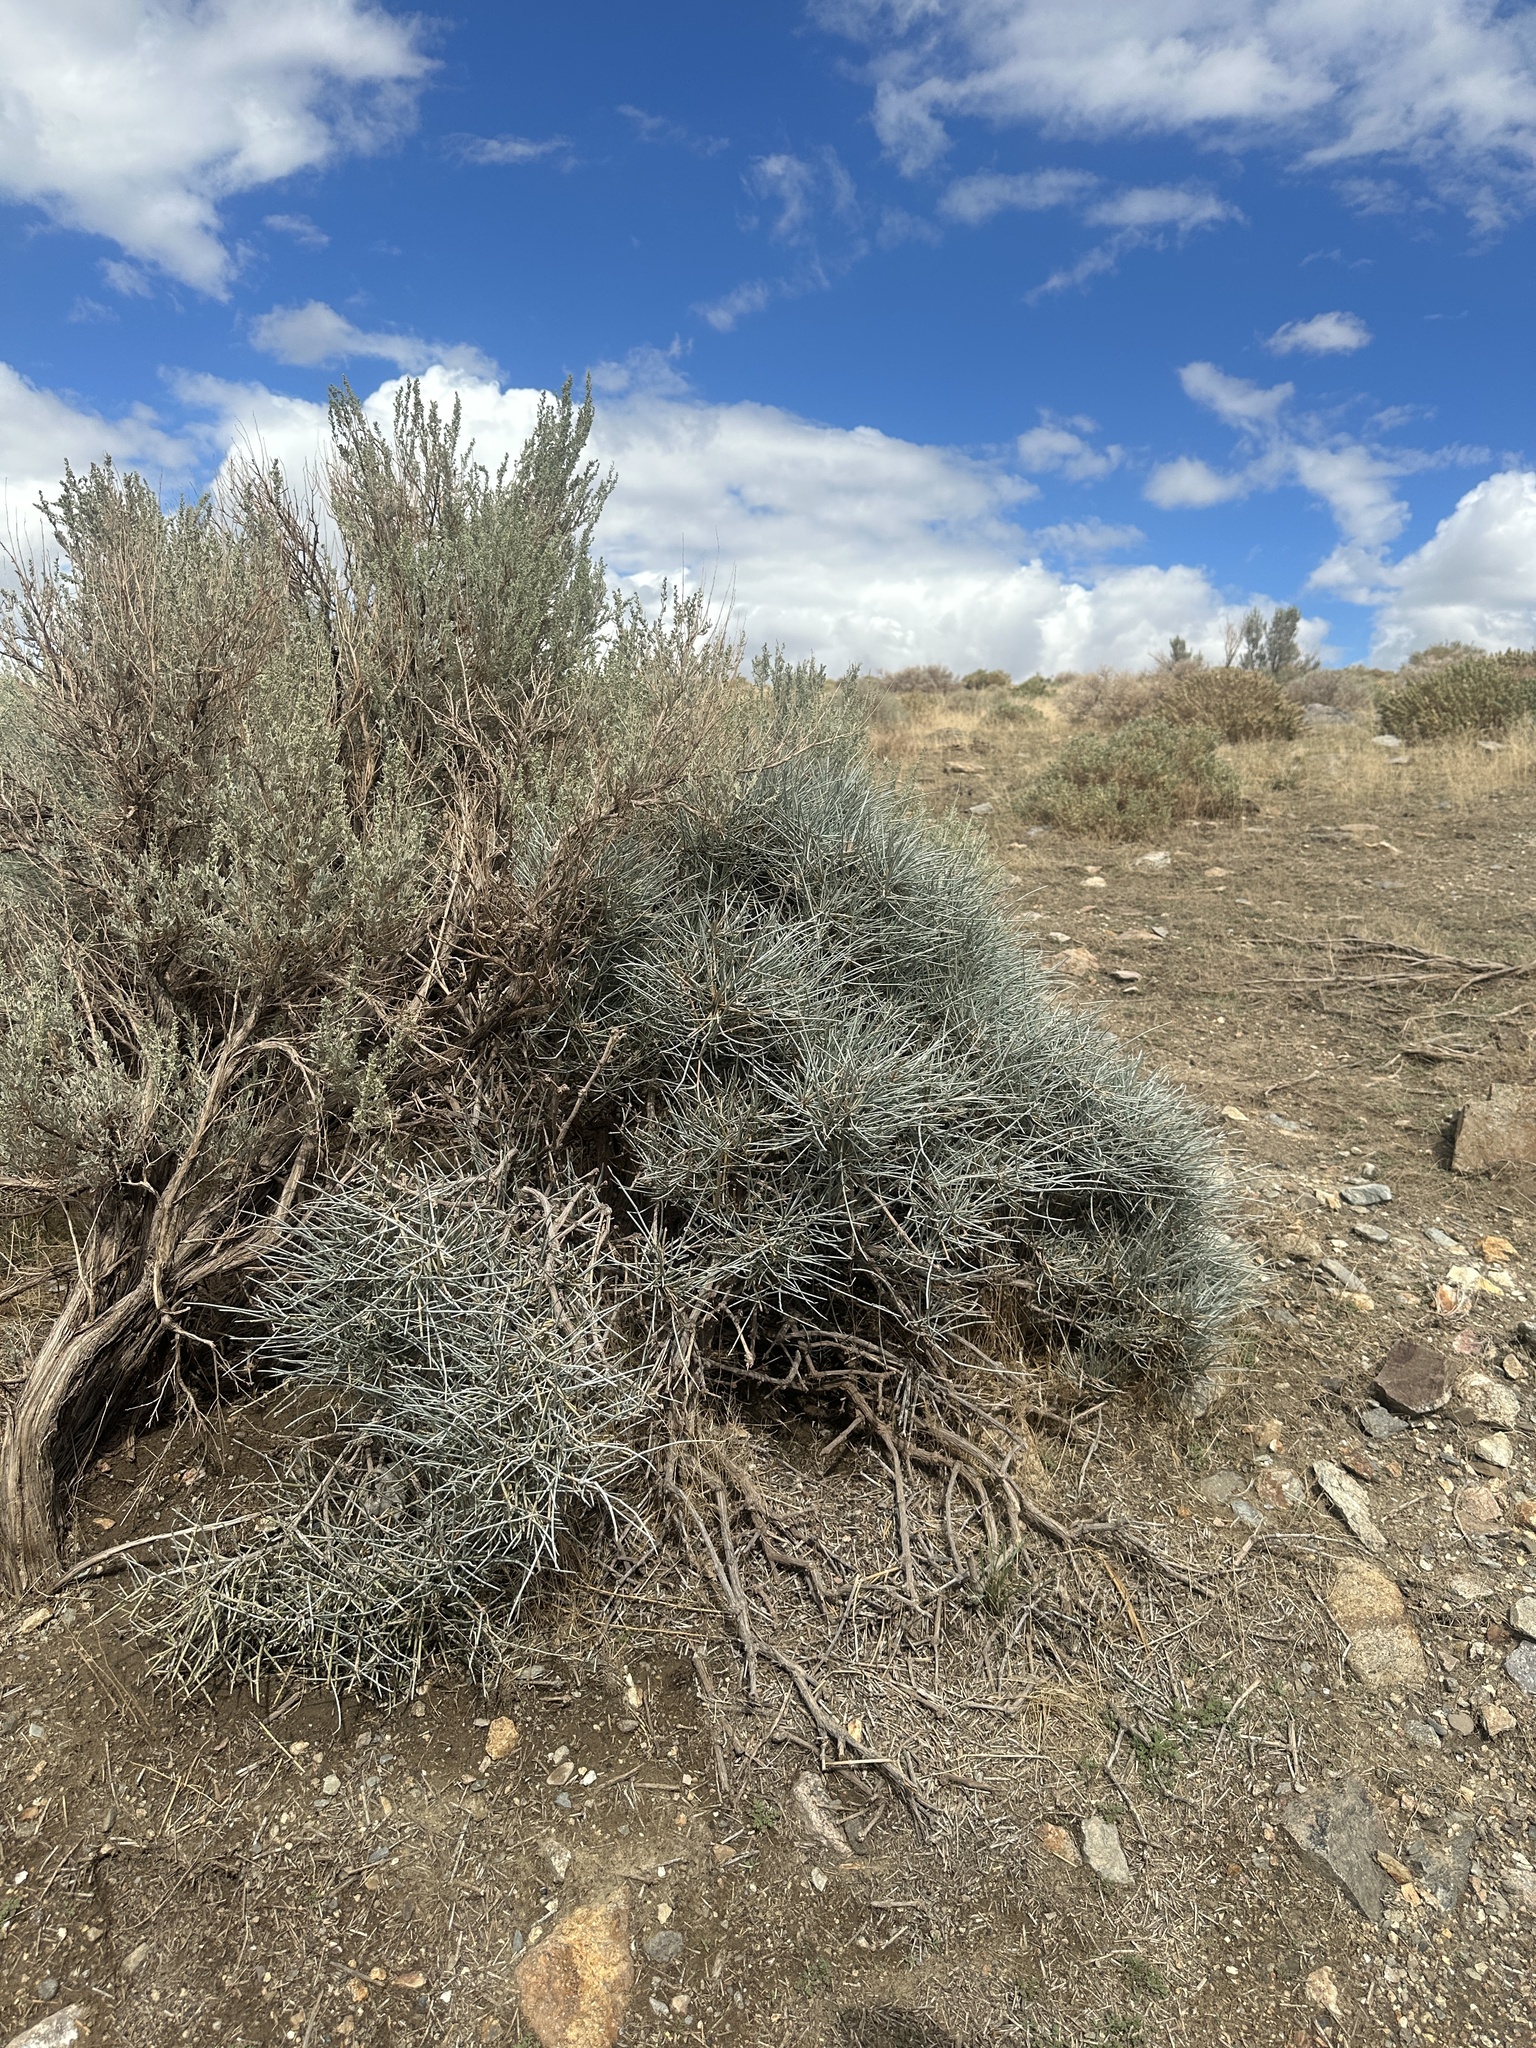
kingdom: Plantae
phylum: Tracheophyta
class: Gnetopsida
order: Ephedrales
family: Ephedraceae
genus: Ephedra
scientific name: Ephedra nevadensis
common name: Gray ephedra
